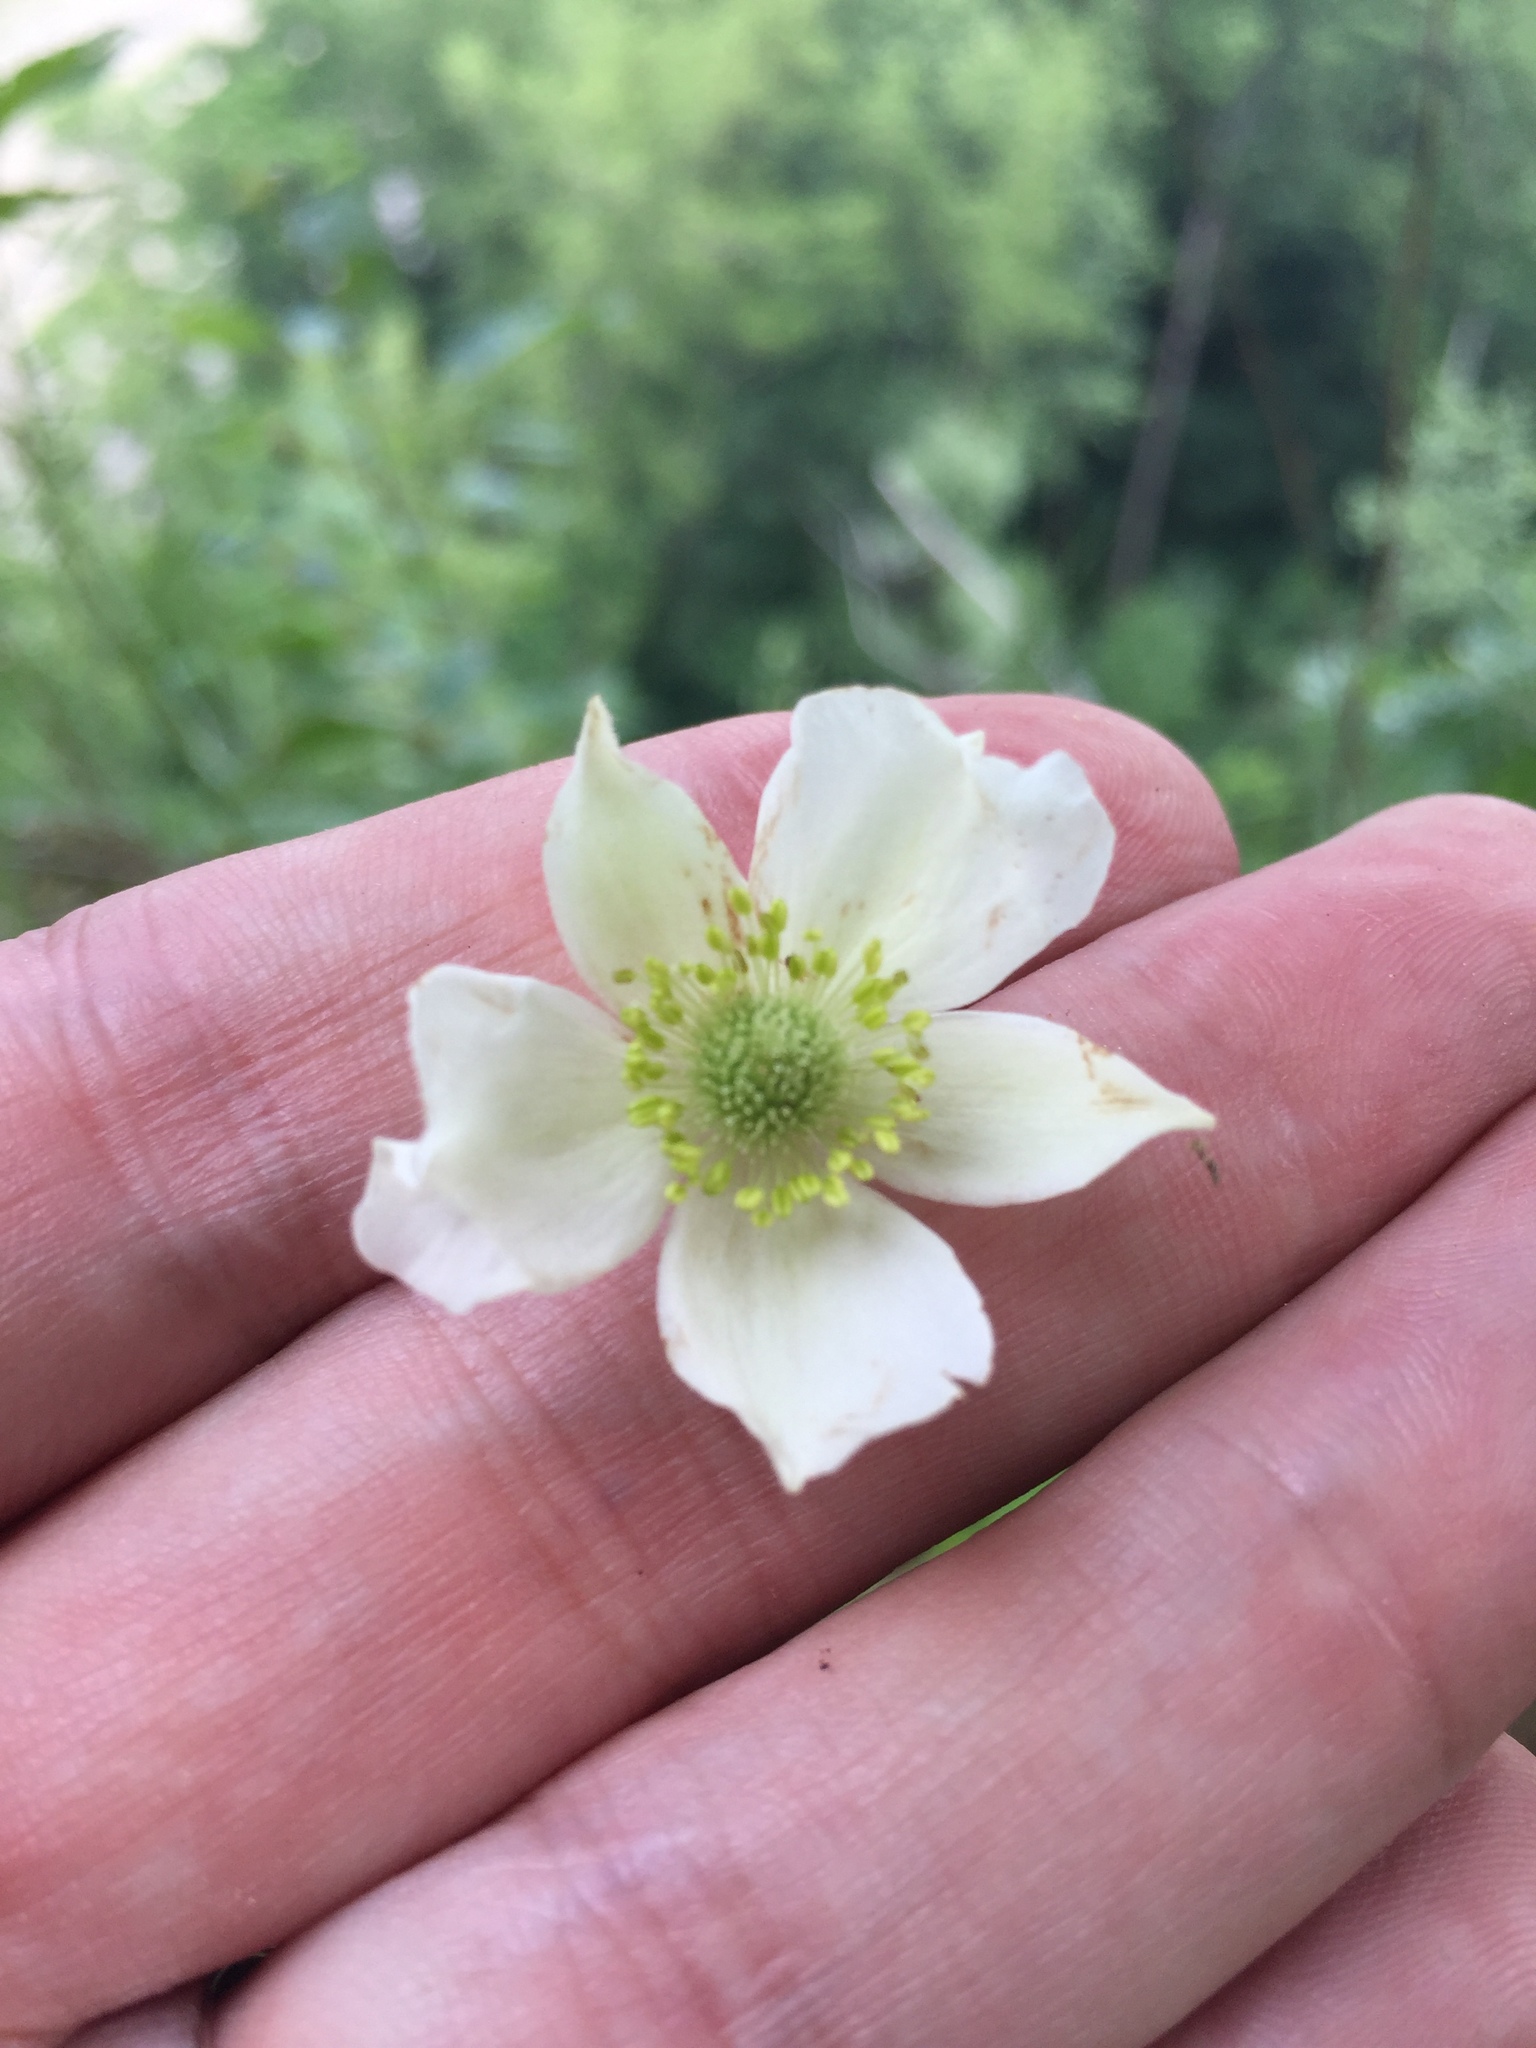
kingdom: Plantae
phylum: Tracheophyta
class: Magnoliopsida
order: Ranunculales
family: Ranunculaceae
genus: Anemone
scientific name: Anemone virginiana
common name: Tall anemone
